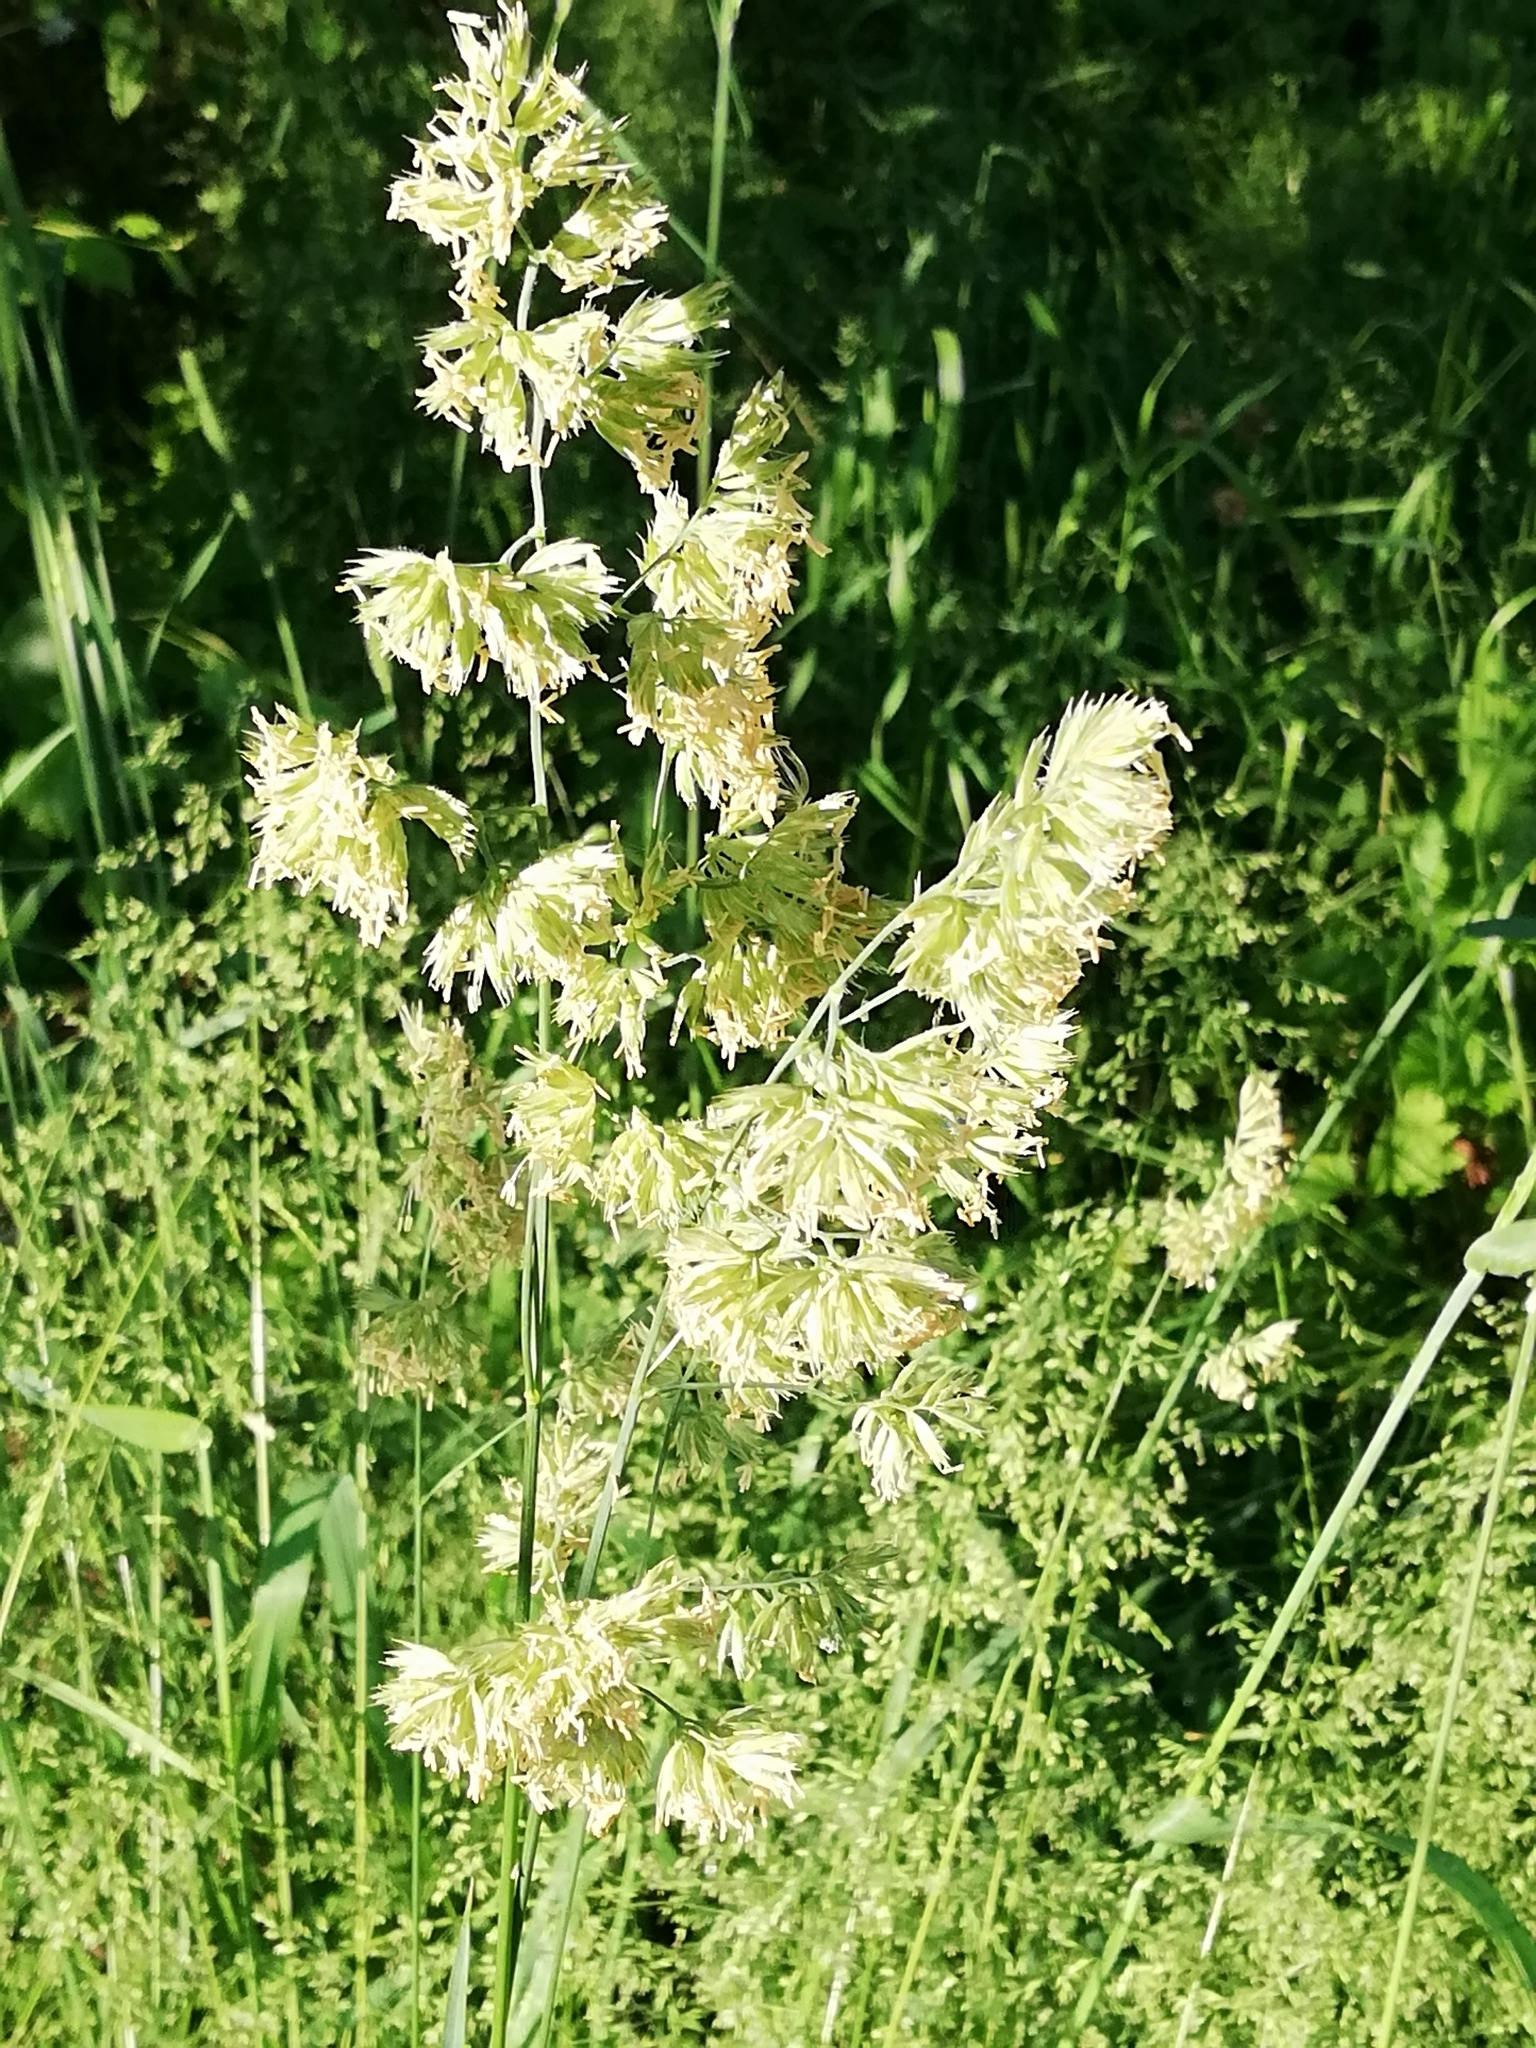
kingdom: Plantae
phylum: Tracheophyta
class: Liliopsida
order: Poales
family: Poaceae
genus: Dactylis
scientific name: Dactylis glomerata
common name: Orchardgrass
